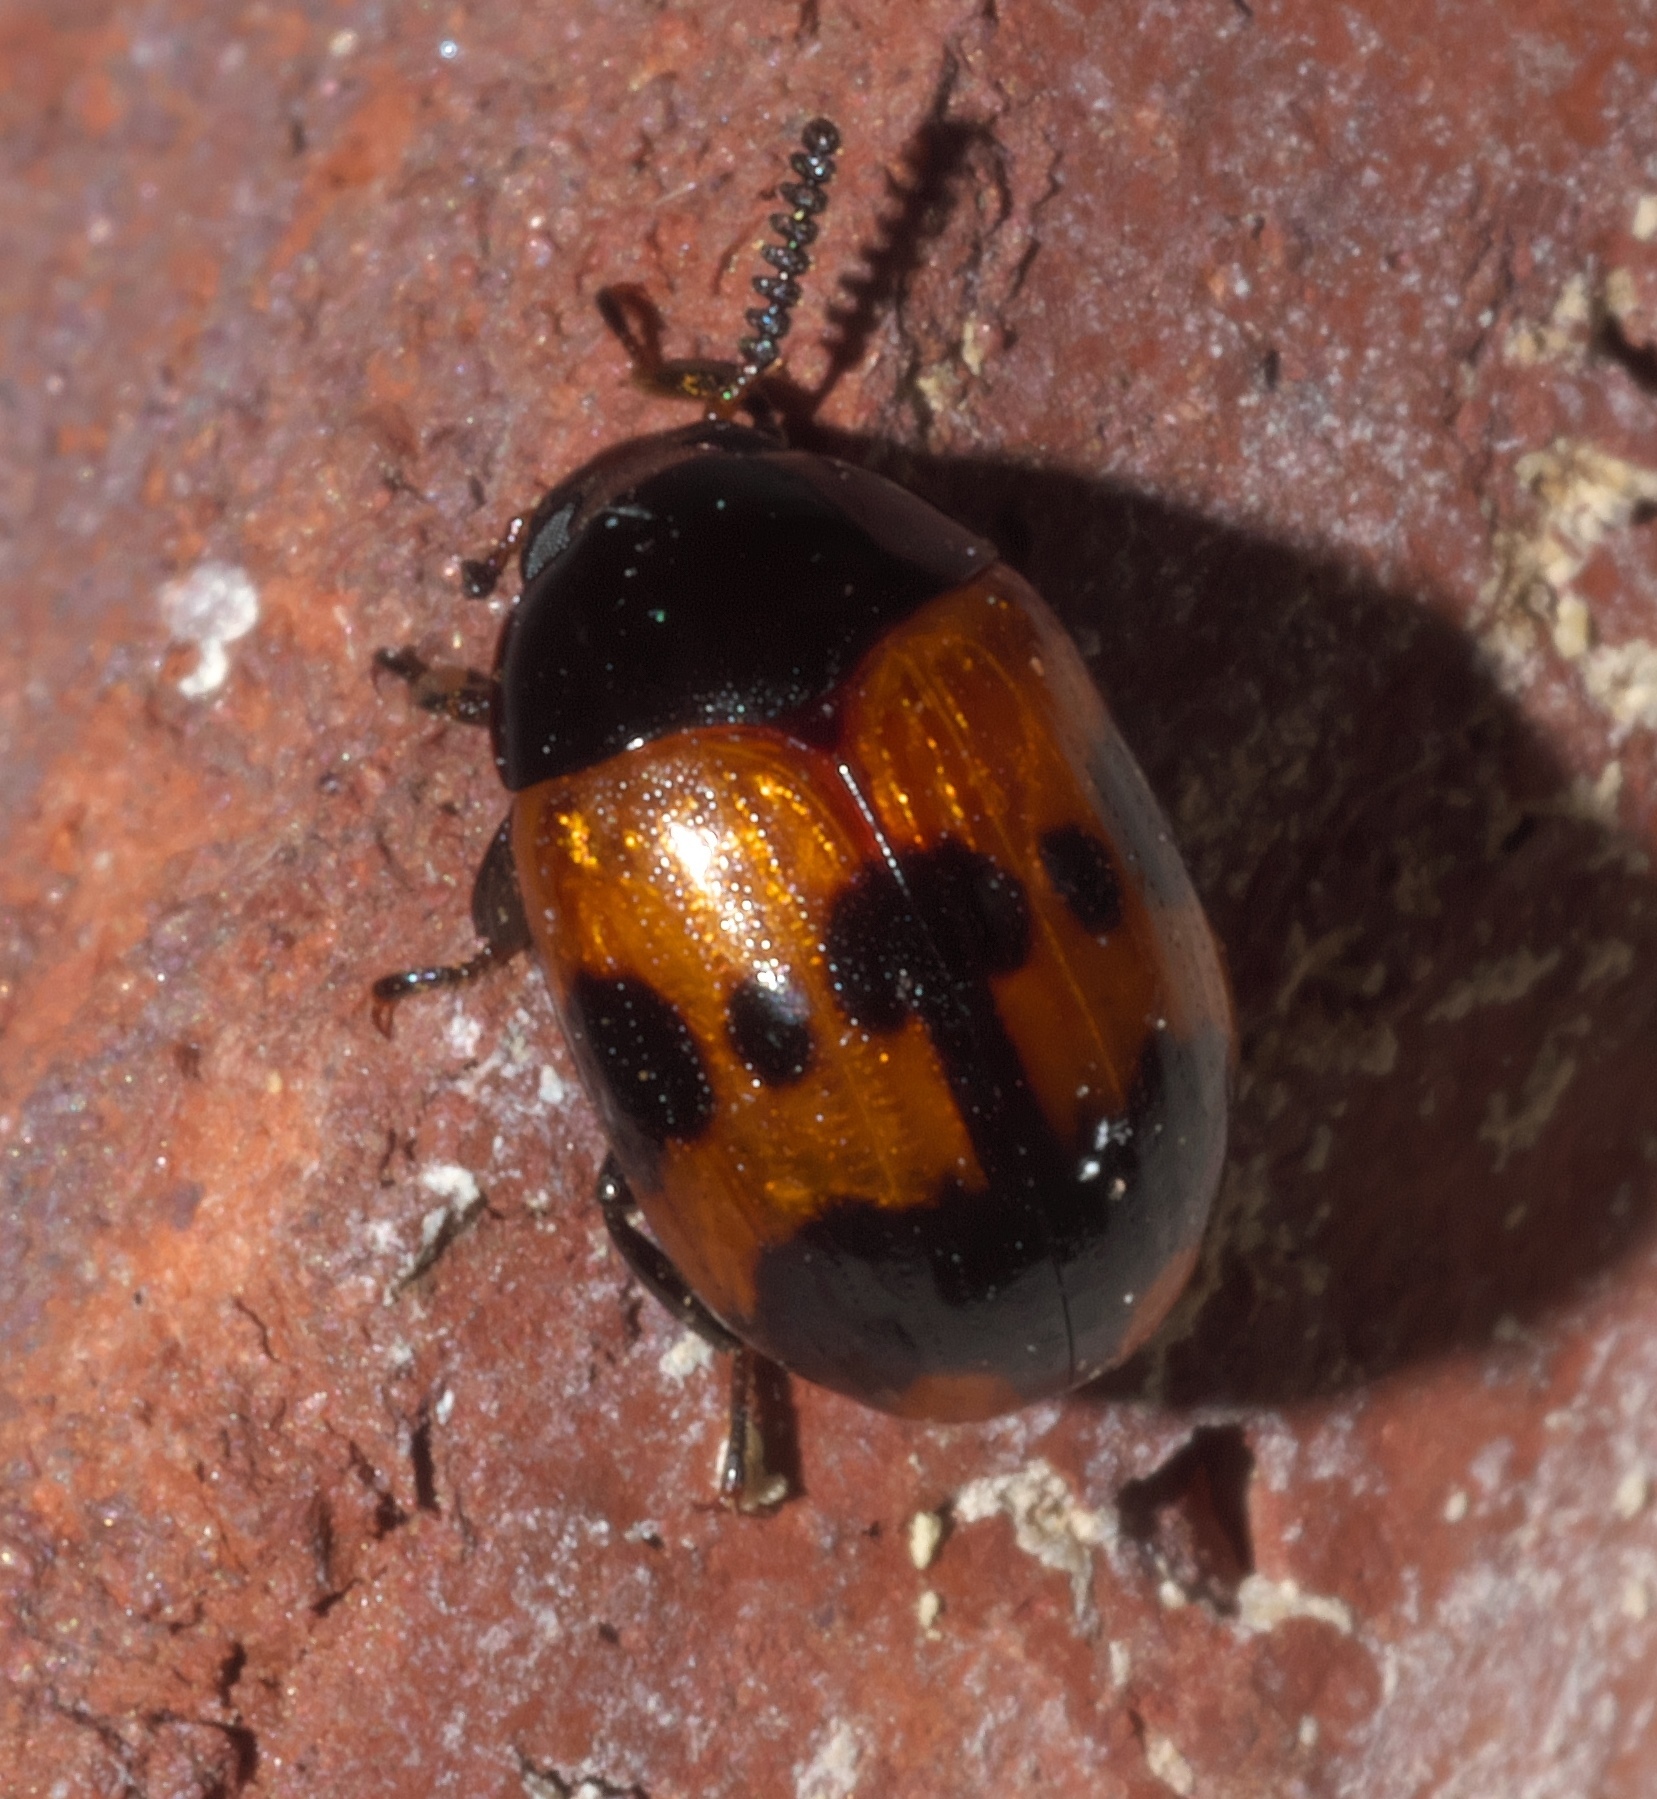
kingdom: Animalia
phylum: Arthropoda
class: Insecta
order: Coleoptera
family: Tenebrionidae
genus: Diaperis
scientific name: Diaperis nigronotata
